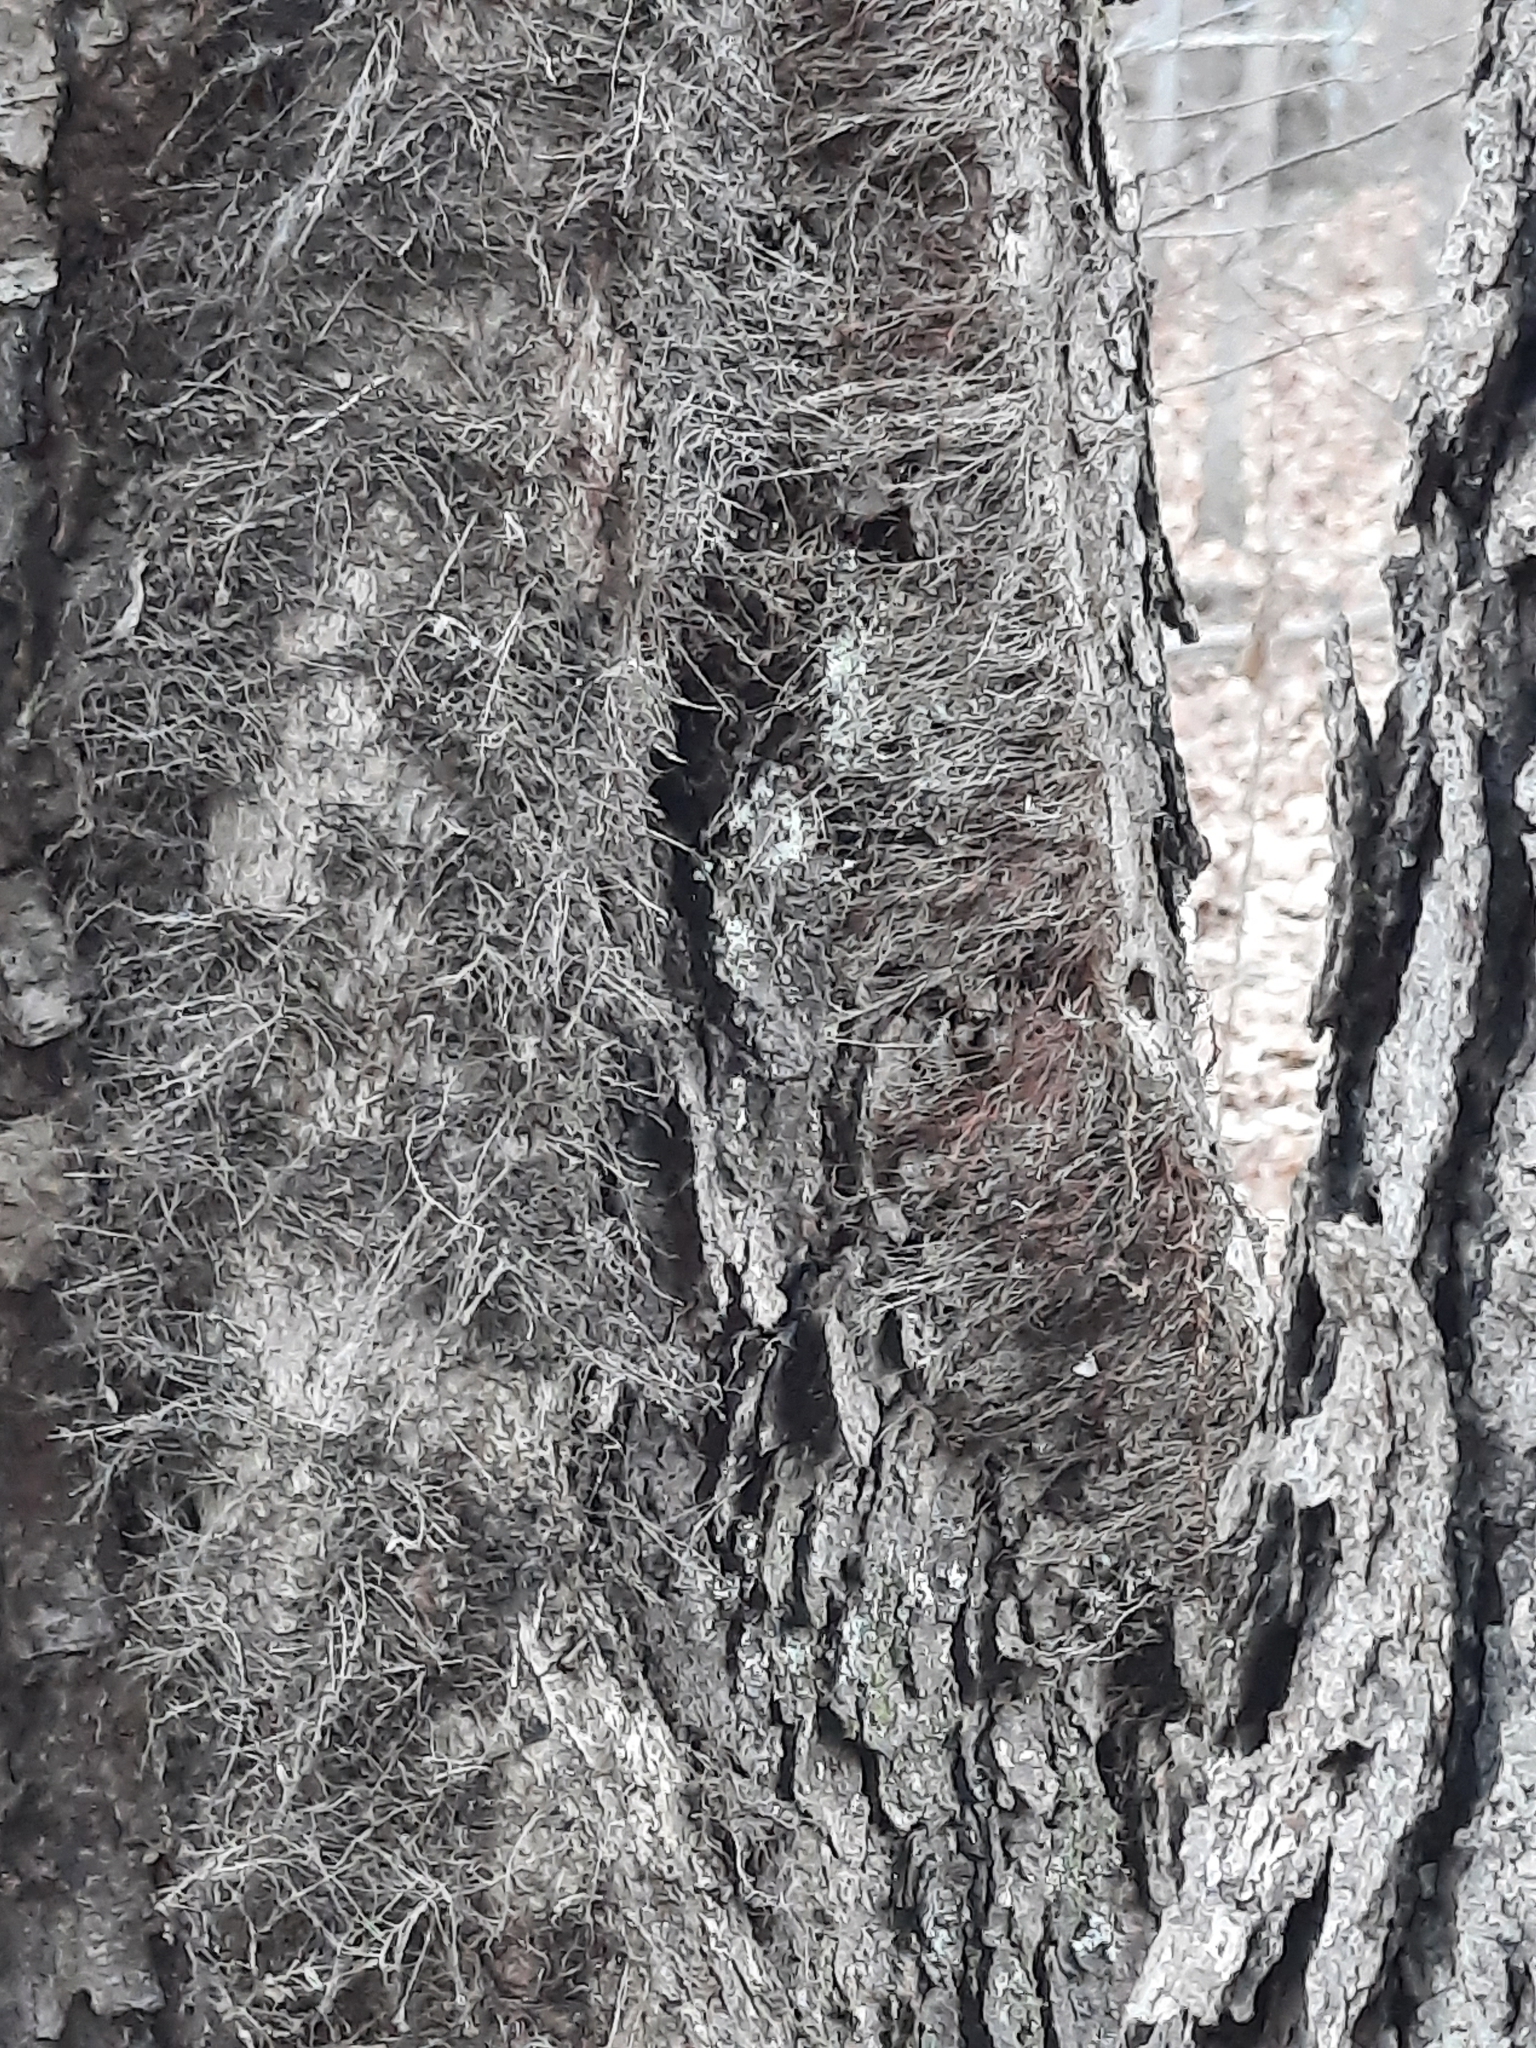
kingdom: Plantae
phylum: Tracheophyta
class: Magnoliopsida
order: Sapindales
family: Anacardiaceae
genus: Toxicodendron
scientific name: Toxicodendron radicans
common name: Poison ivy
